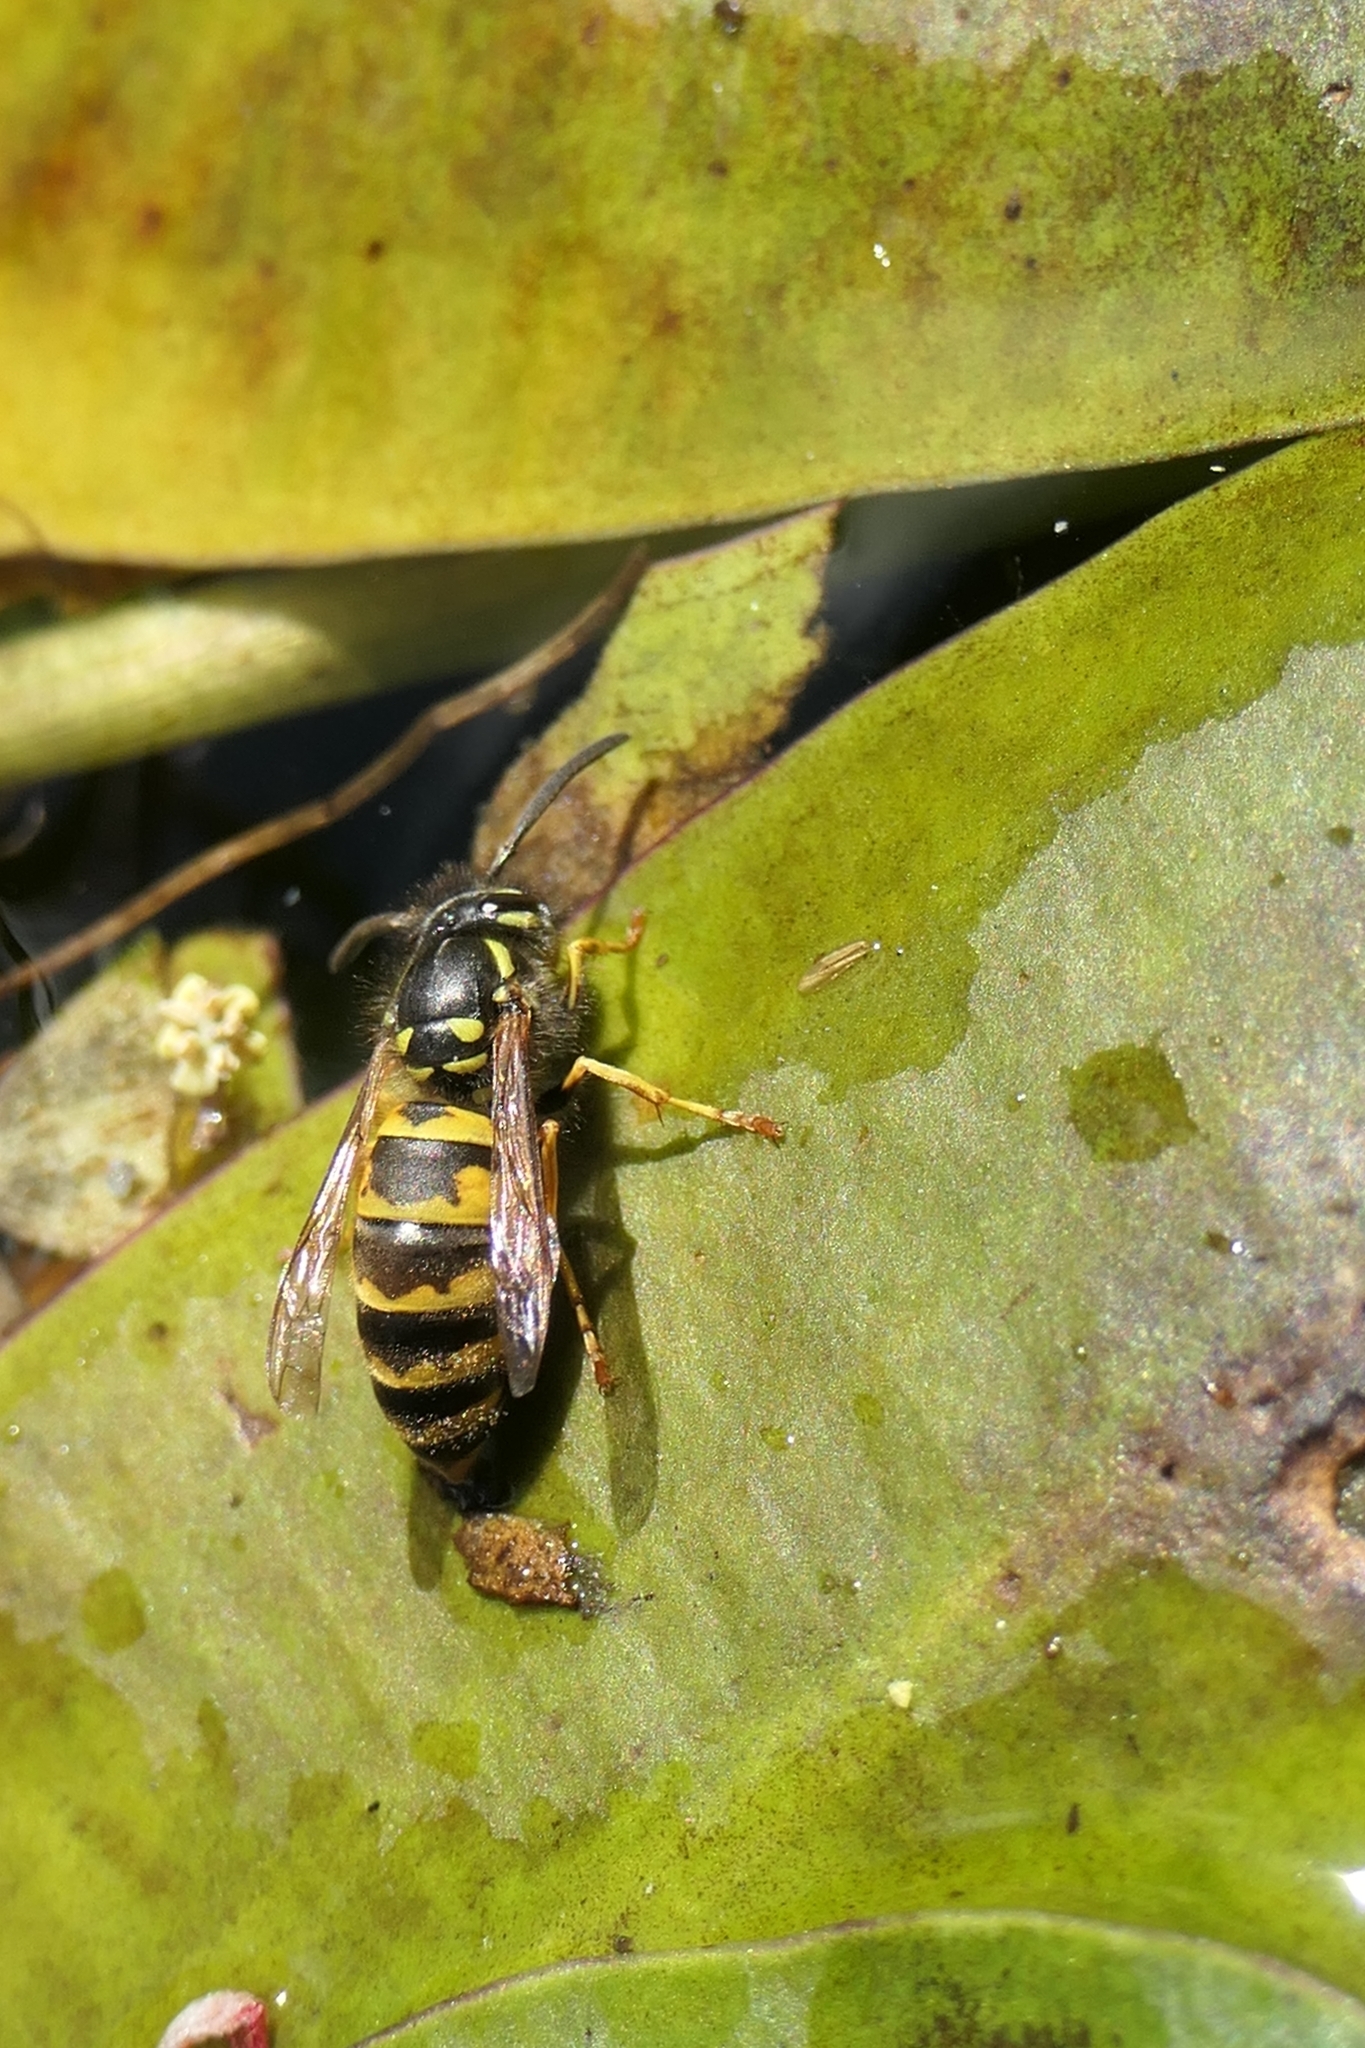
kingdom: Animalia
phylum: Arthropoda
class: Insecta
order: Hymenoptera
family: Vespidae
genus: Vespula
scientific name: Vespula vulgaris
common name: Common wasp
